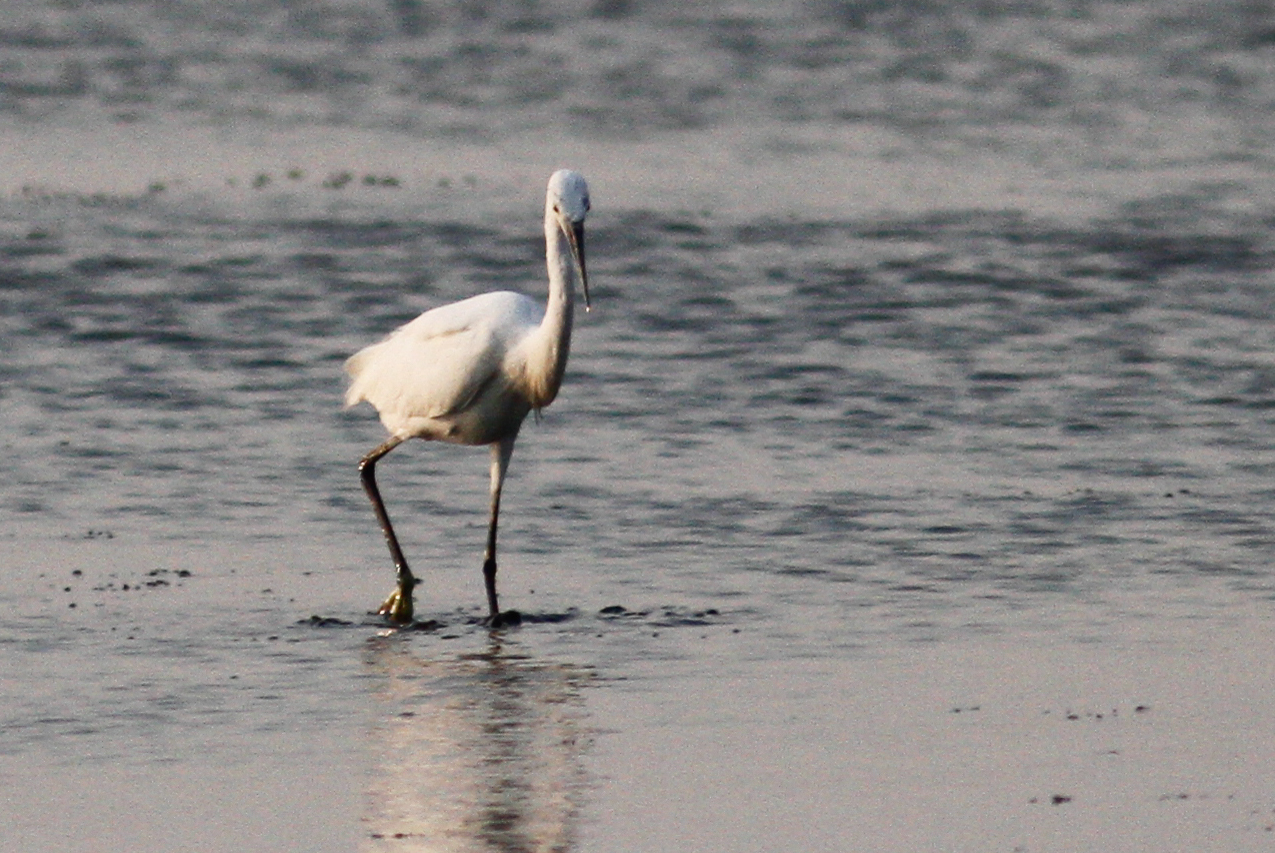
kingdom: Animalia
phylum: Chordata
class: Aves
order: Pelecaniformes
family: Ardeidae
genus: Egretta
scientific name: Egretta garzetta
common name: Little egret
